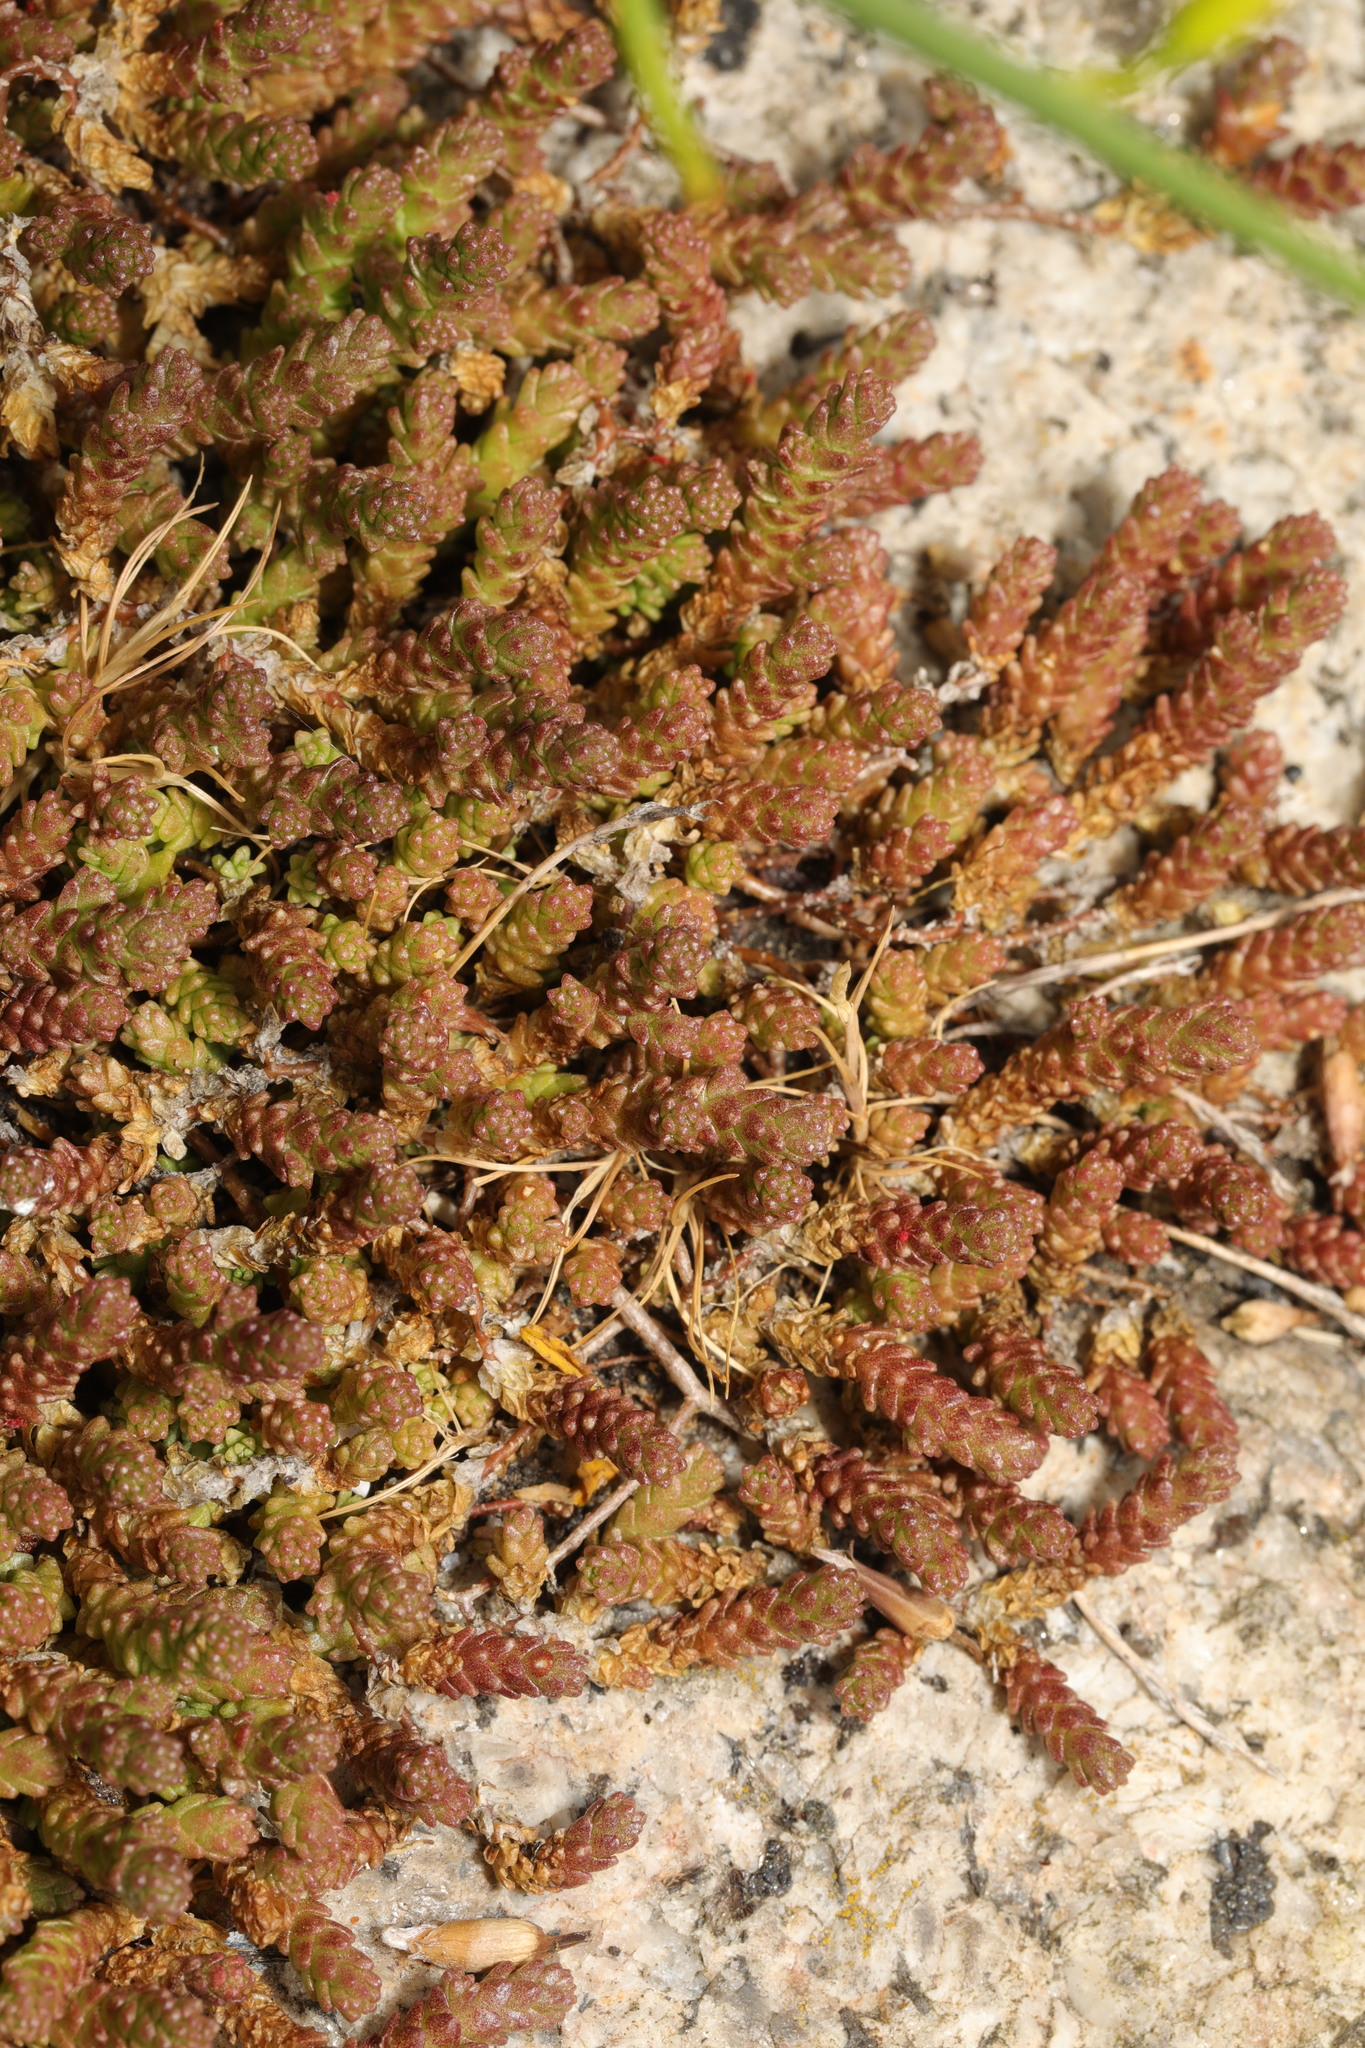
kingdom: Plantae
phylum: Tracheophyta
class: Magnoliopsida
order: Saxifragales
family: Crassulaceae
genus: Sedum
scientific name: Sedum acre
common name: Biting stonecrop
